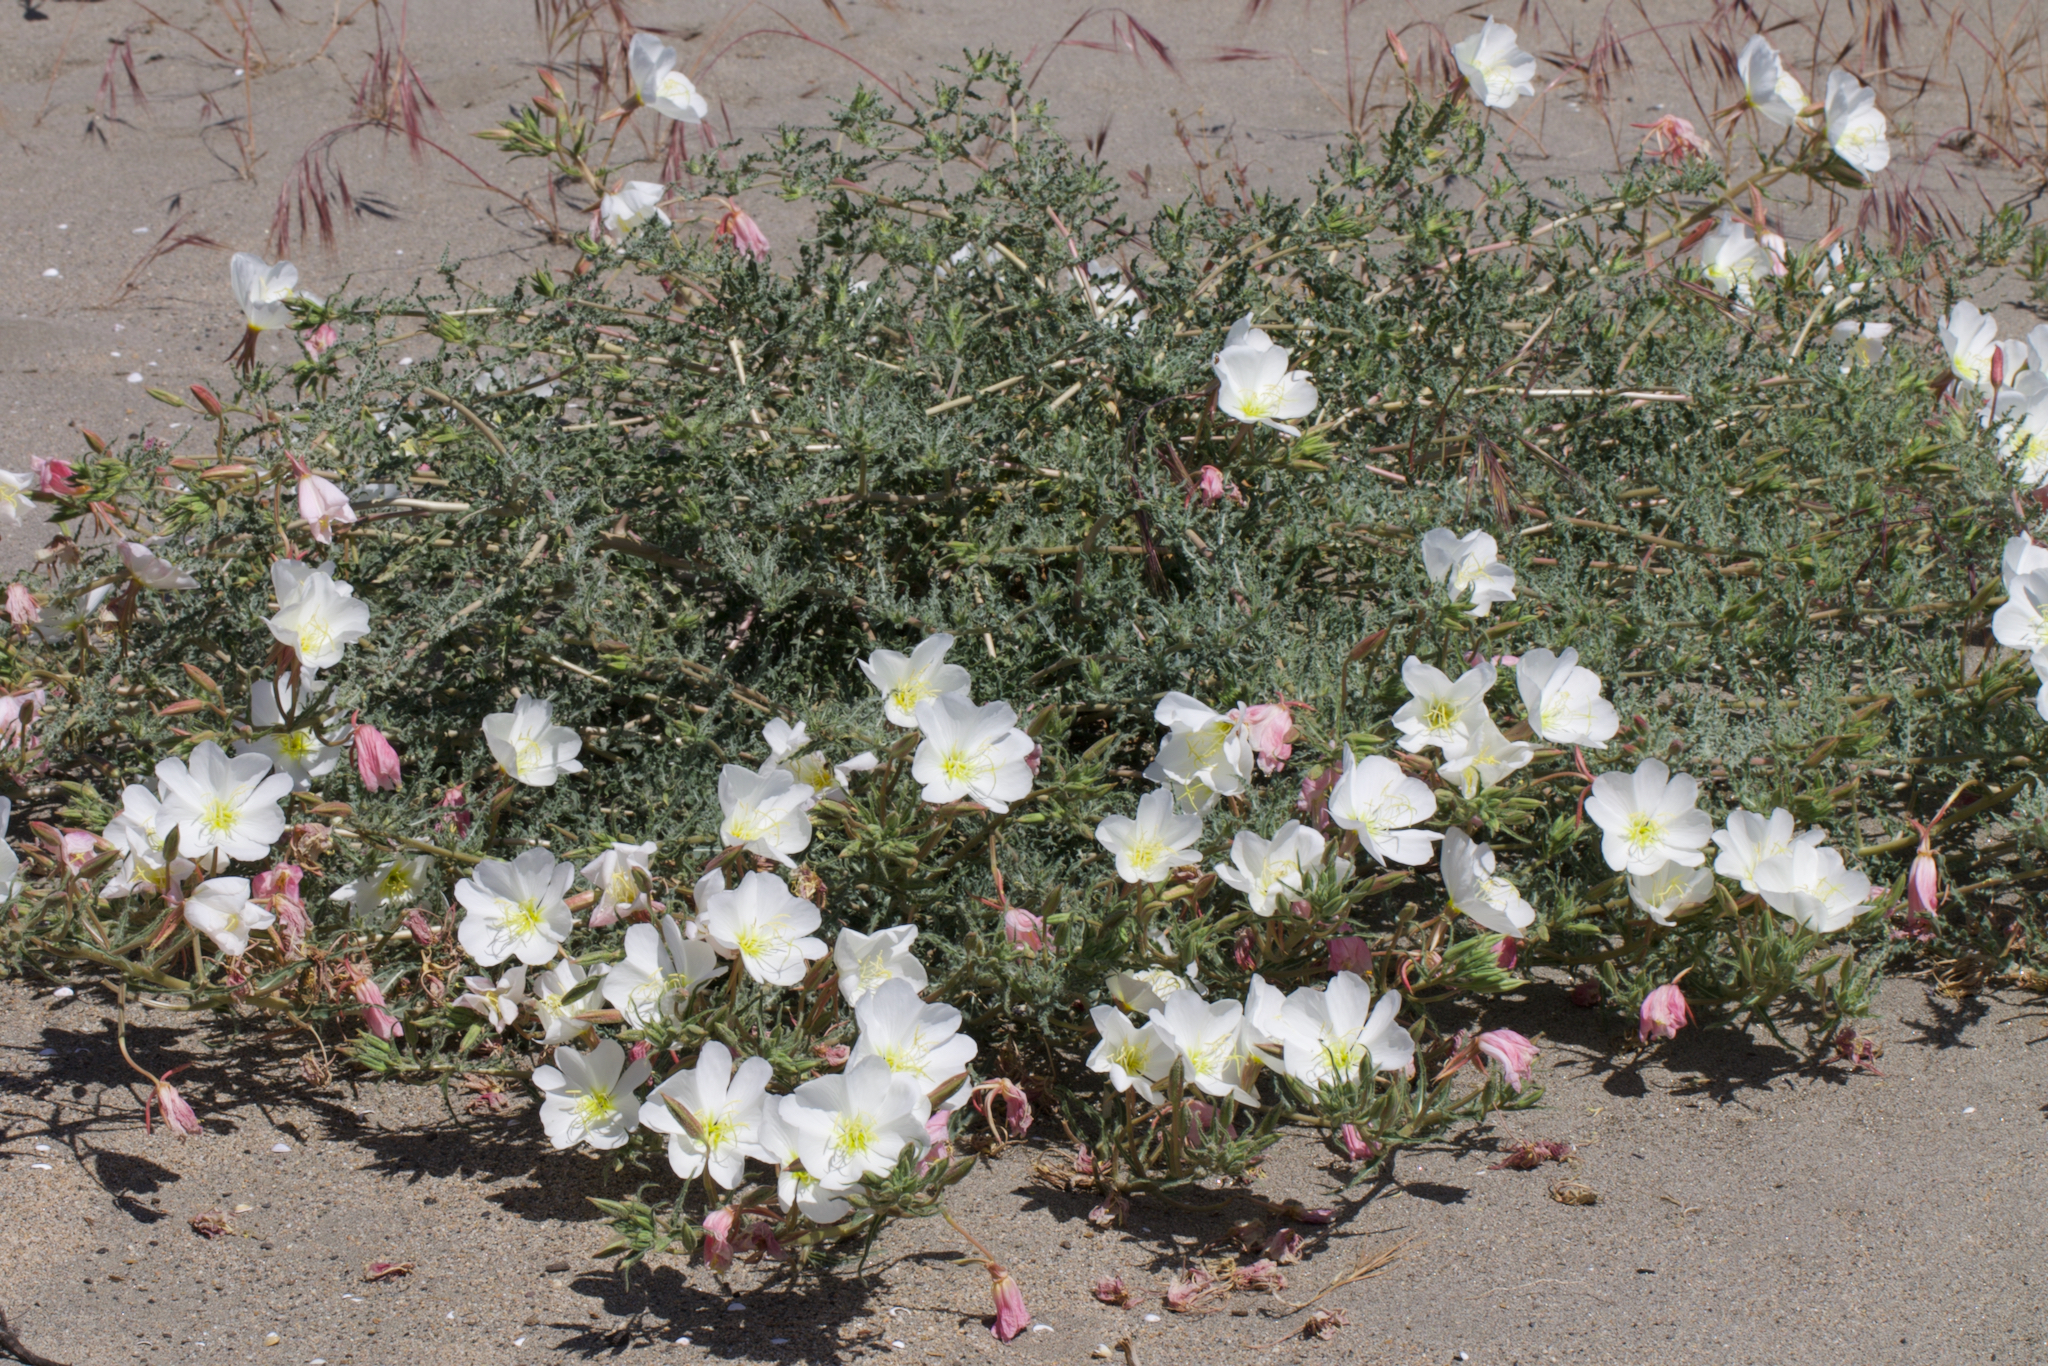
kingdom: Plantae
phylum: Tracheophyta
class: Magnoliopsida
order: Myrtales
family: Onagraceae
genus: Oenothera
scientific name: Oenothera deltoides
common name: Basket evening-primrose
